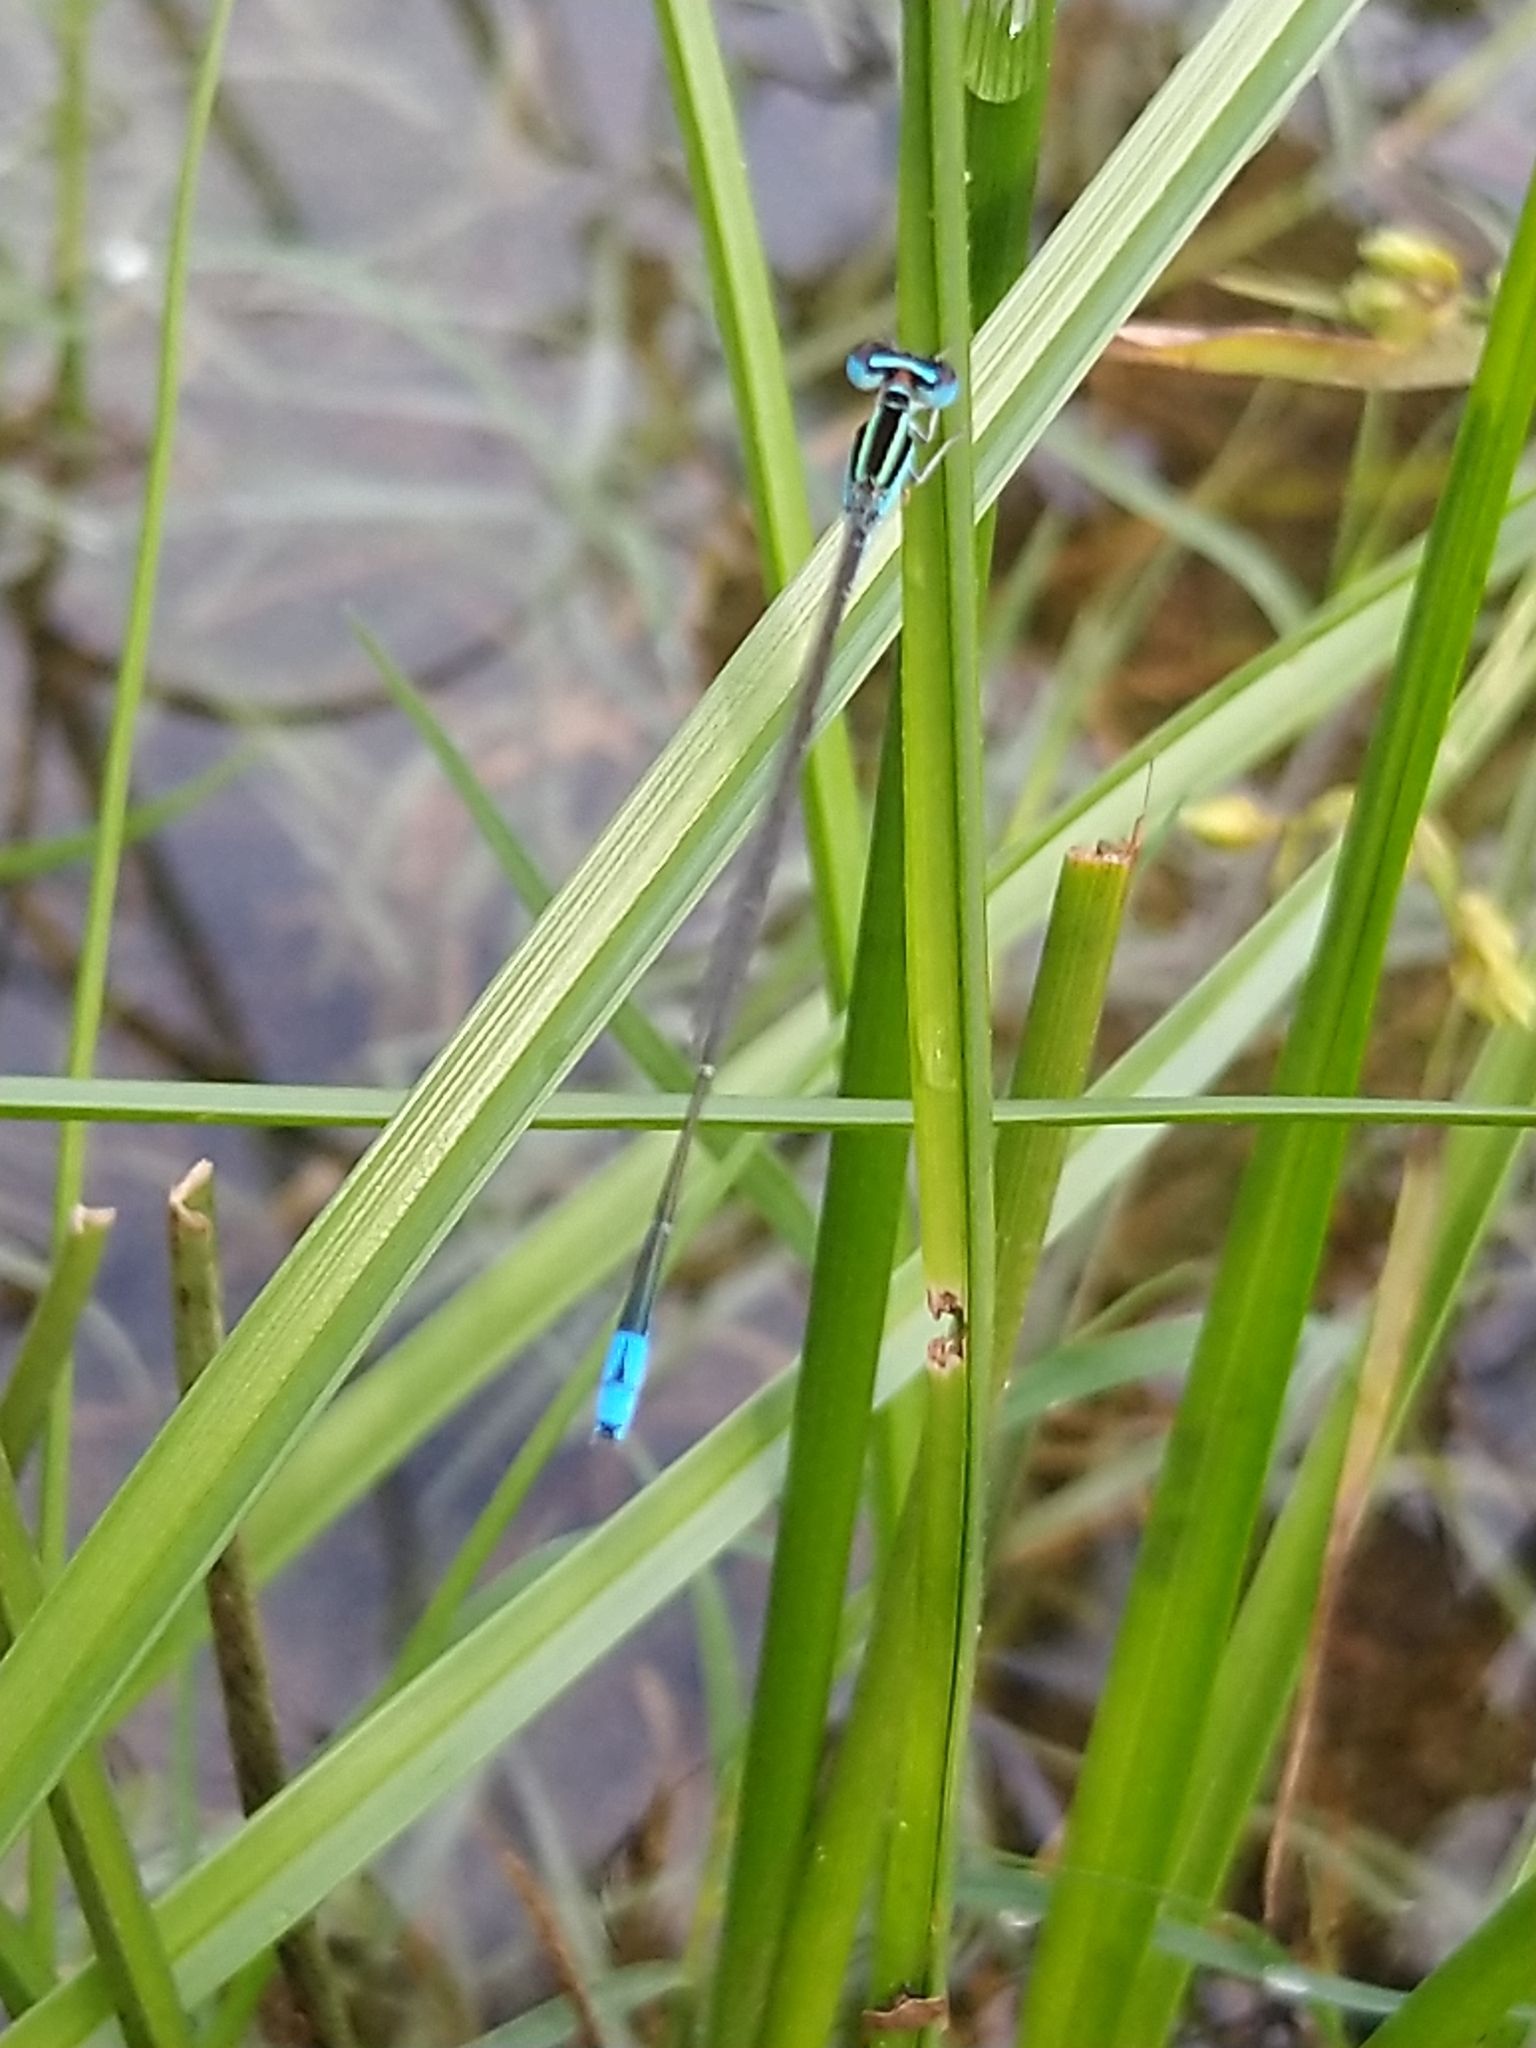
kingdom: Animalia
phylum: Arthropoda
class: Insecta
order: Odonata
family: Coenagrionidae
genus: Aciagrion
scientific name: Aciagrion occidentale
